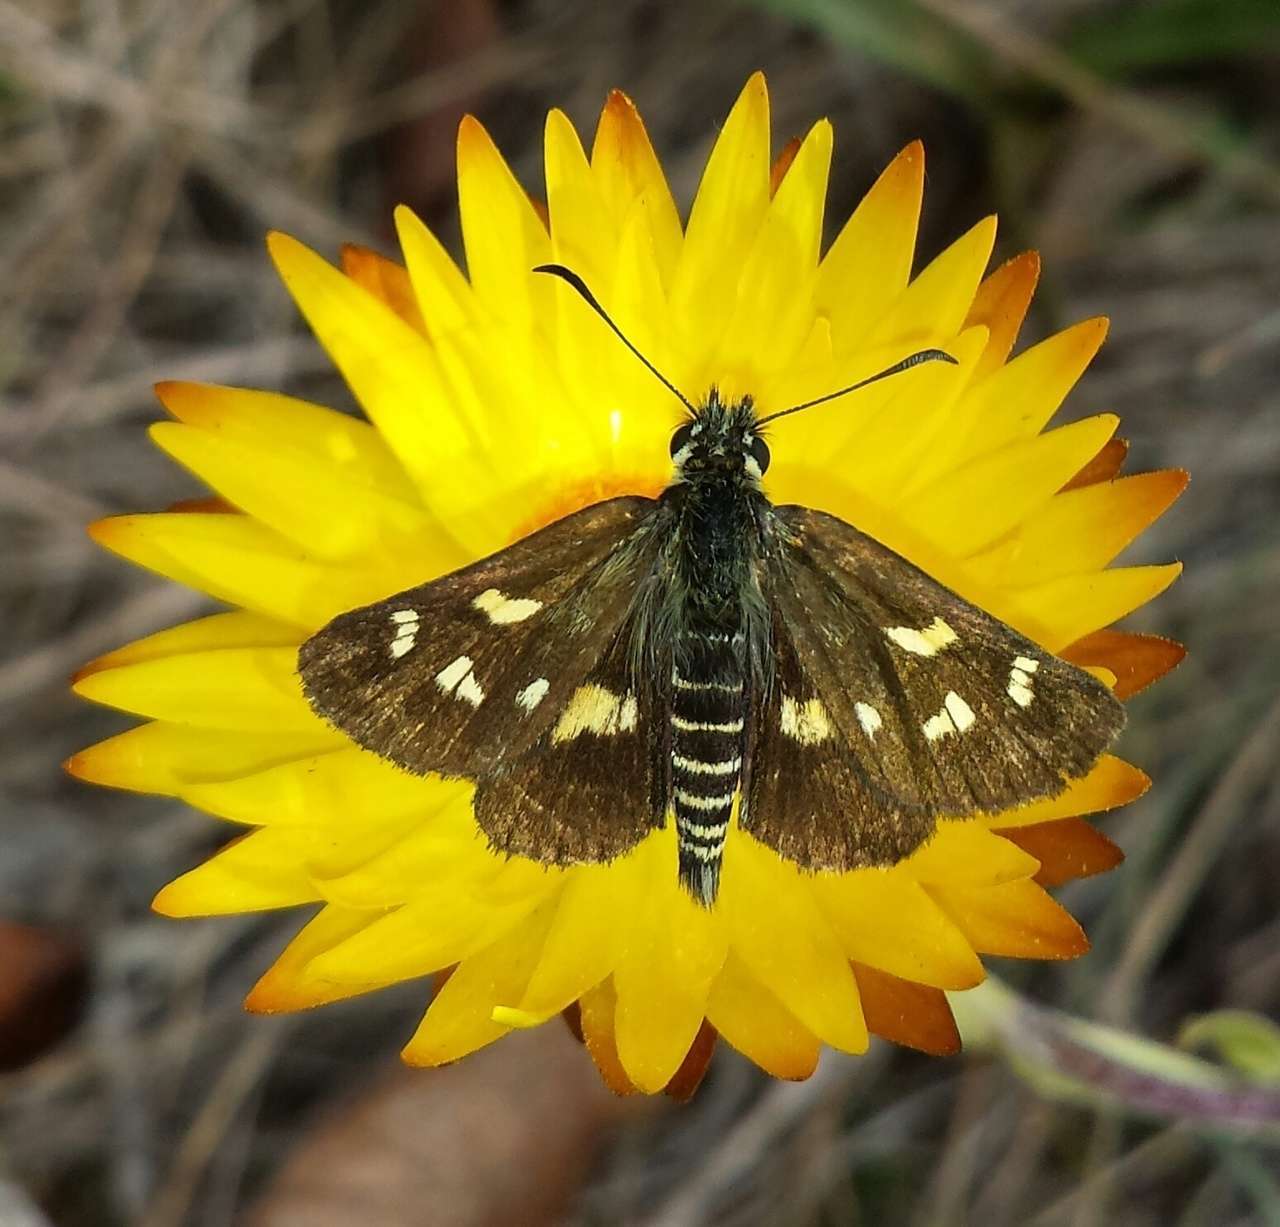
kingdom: Animalia
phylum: Arthropoda
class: Insecta
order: Lepidoptera
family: Hesperiidae
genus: Oreisplanus
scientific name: Oreisplanus munionga
